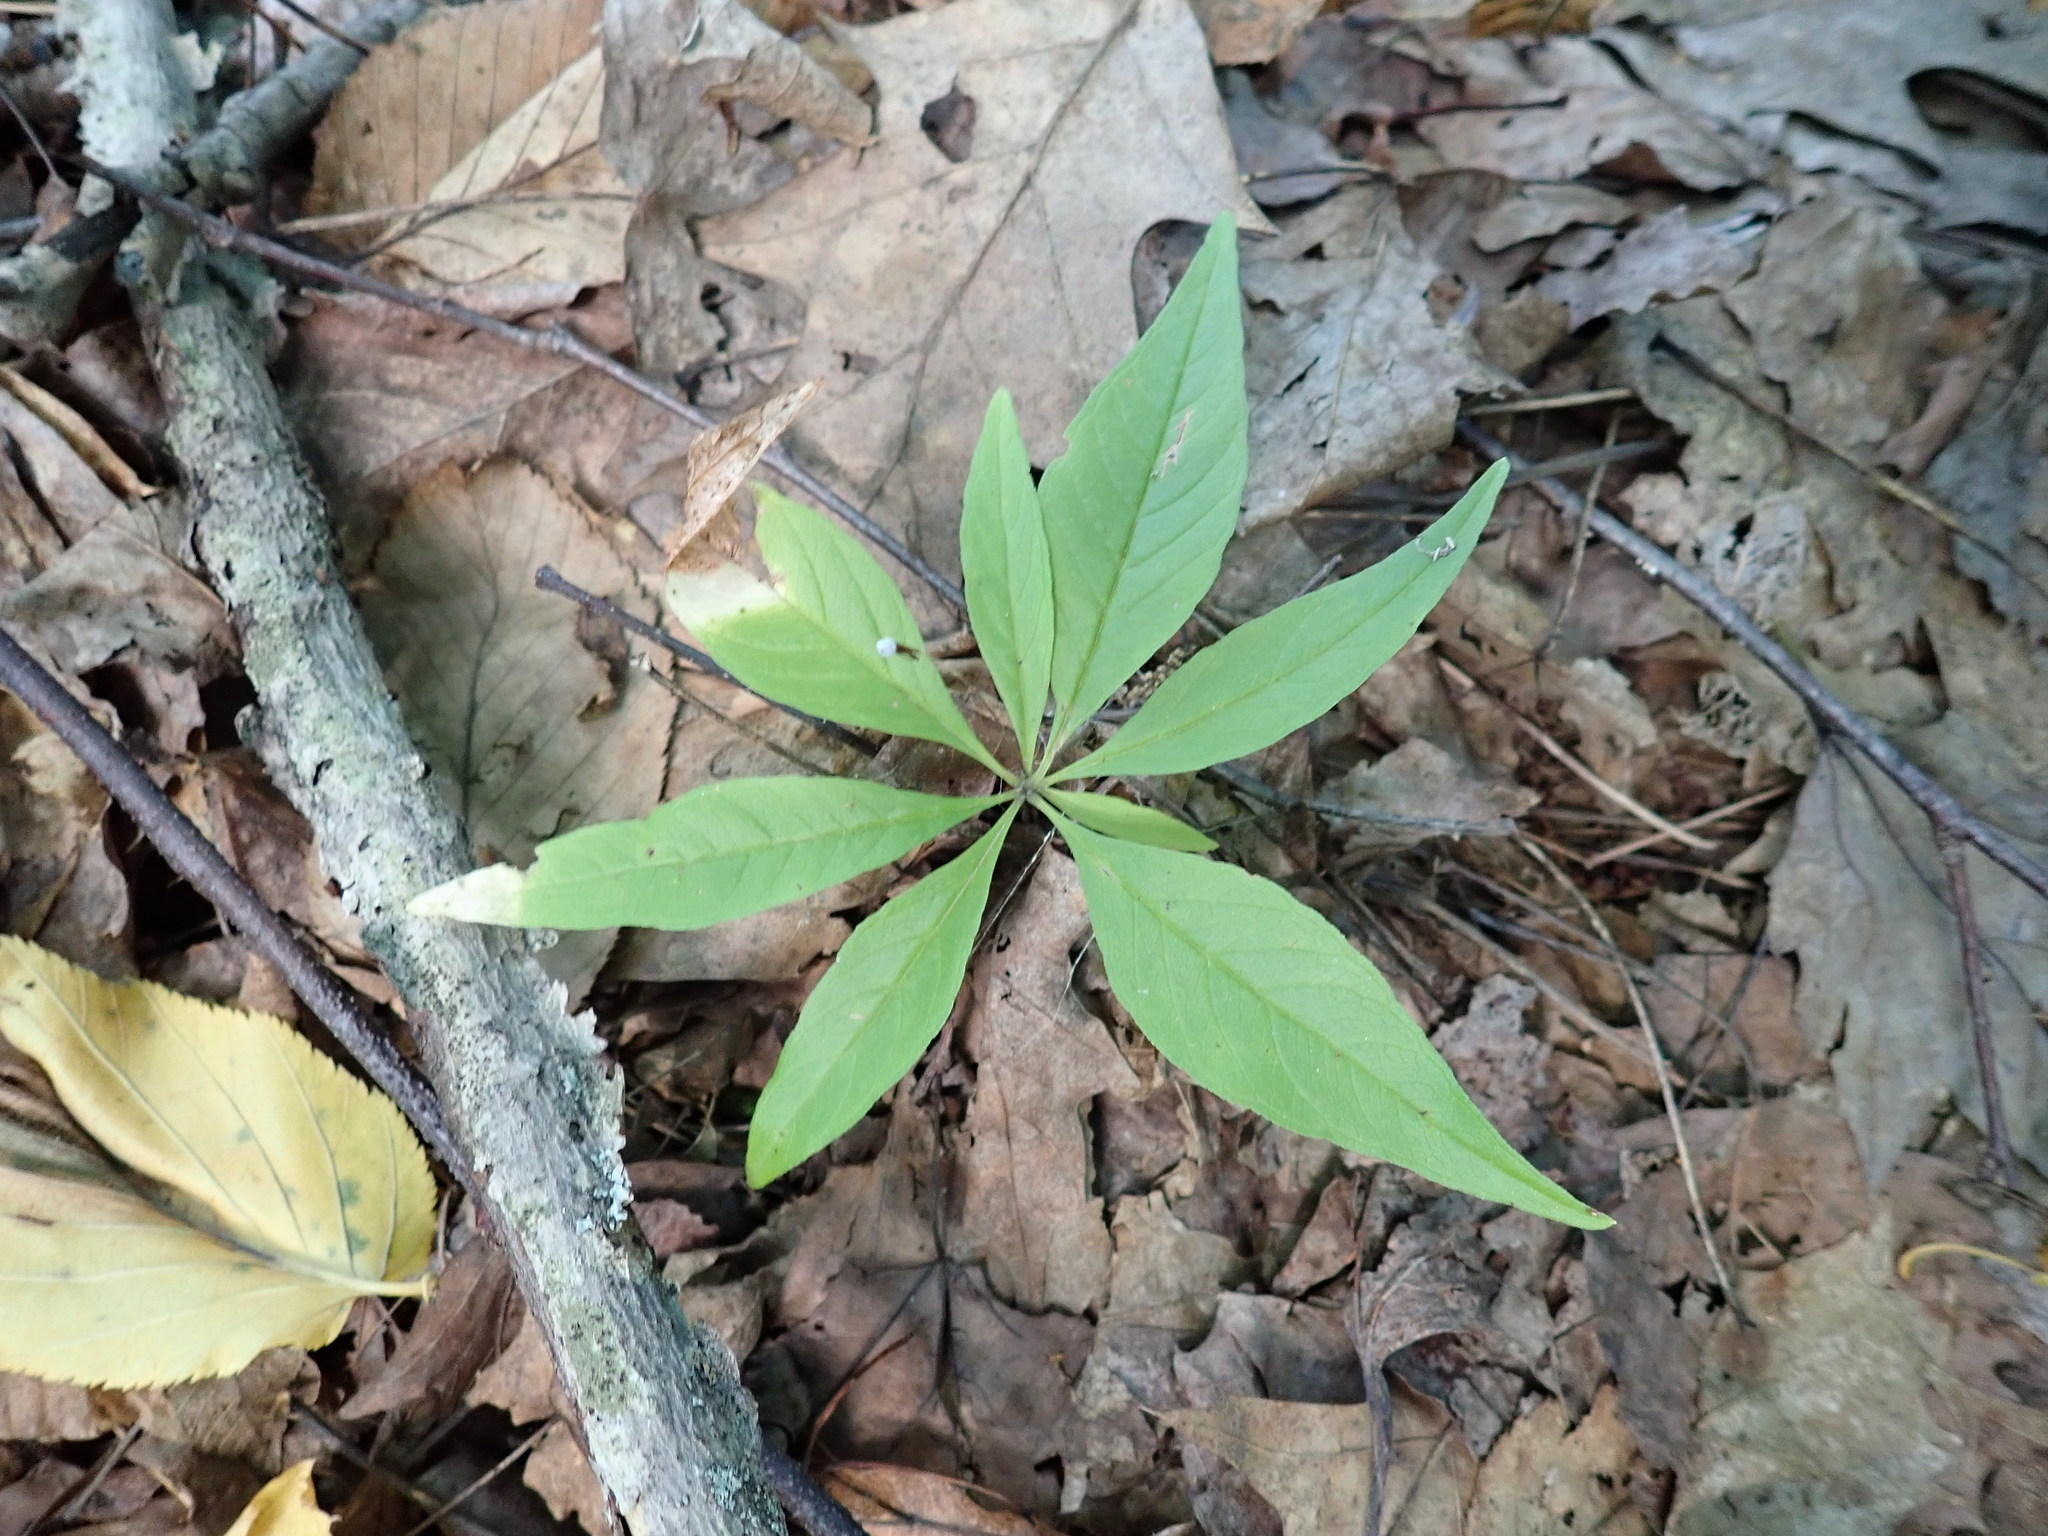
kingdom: Plantae
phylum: Tracheophyta
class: Magnoliopsida
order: Ericales
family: Primulaceae
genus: Lysimachia
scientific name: Lysimachia borealis
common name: American starflower
